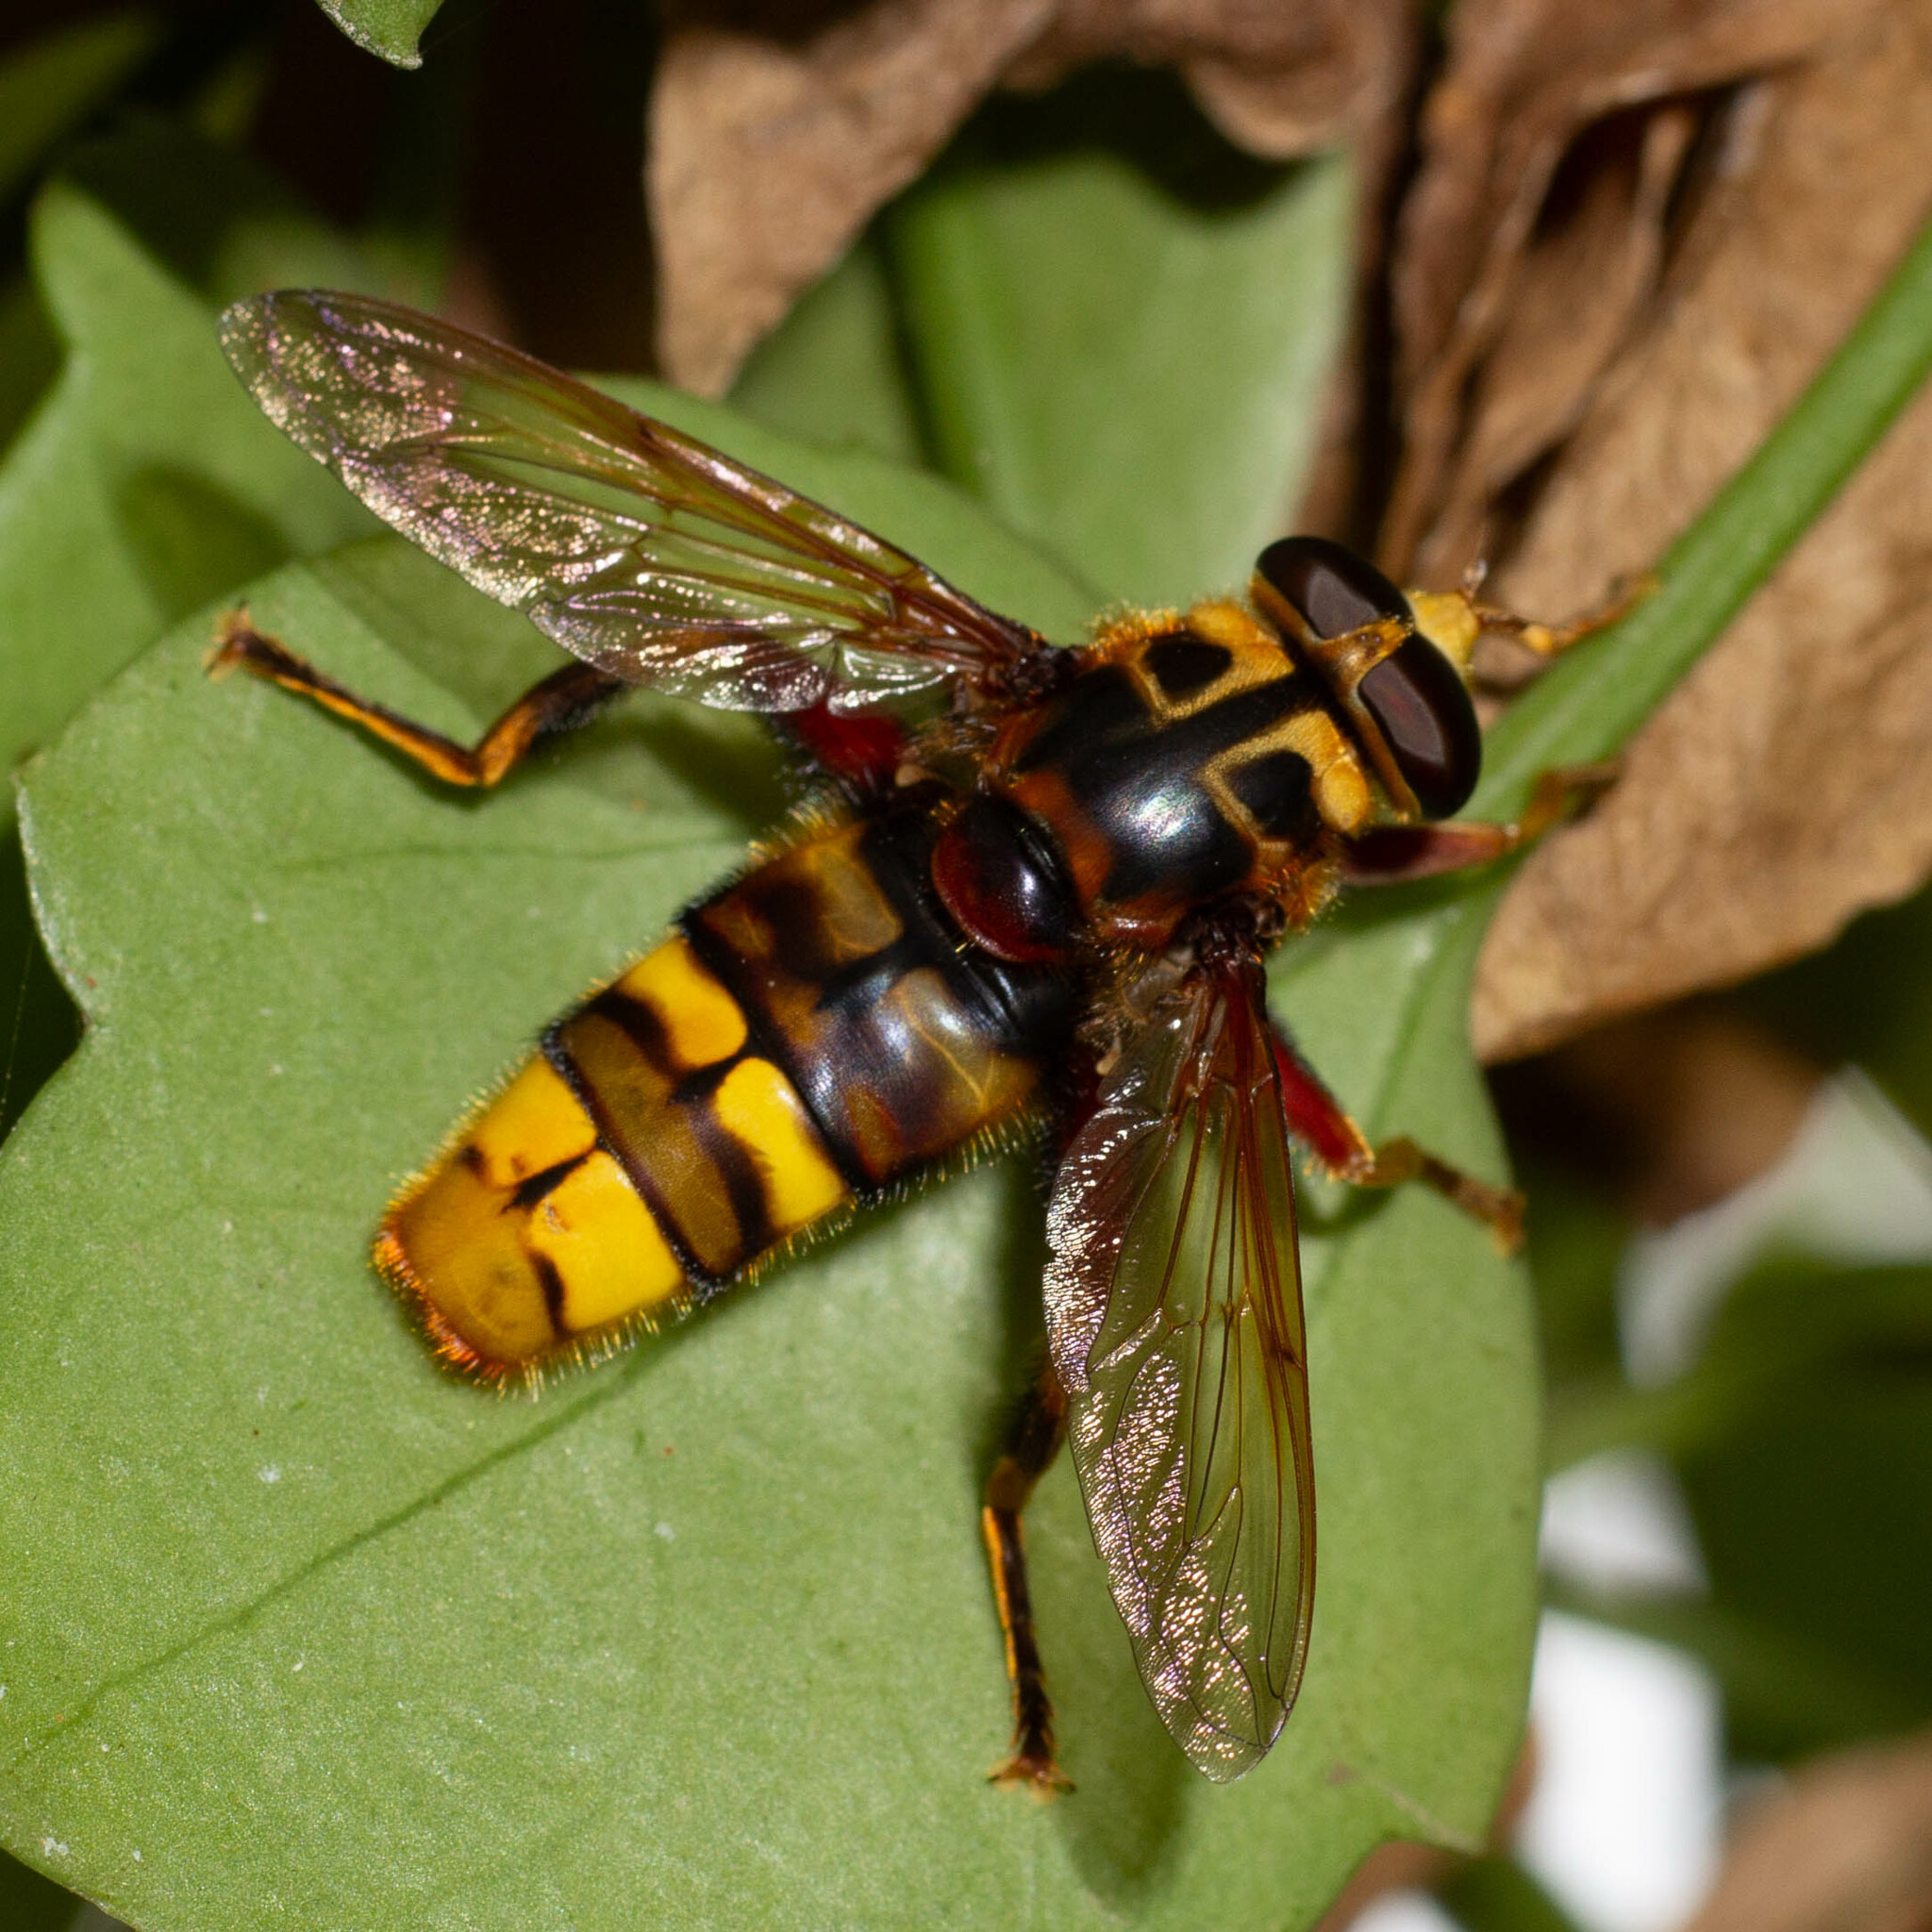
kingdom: Animalia
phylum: Arthropoda
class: Insecta
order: Diptera
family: Syrphidae
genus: Milesia
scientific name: Milesia crabroniformis
